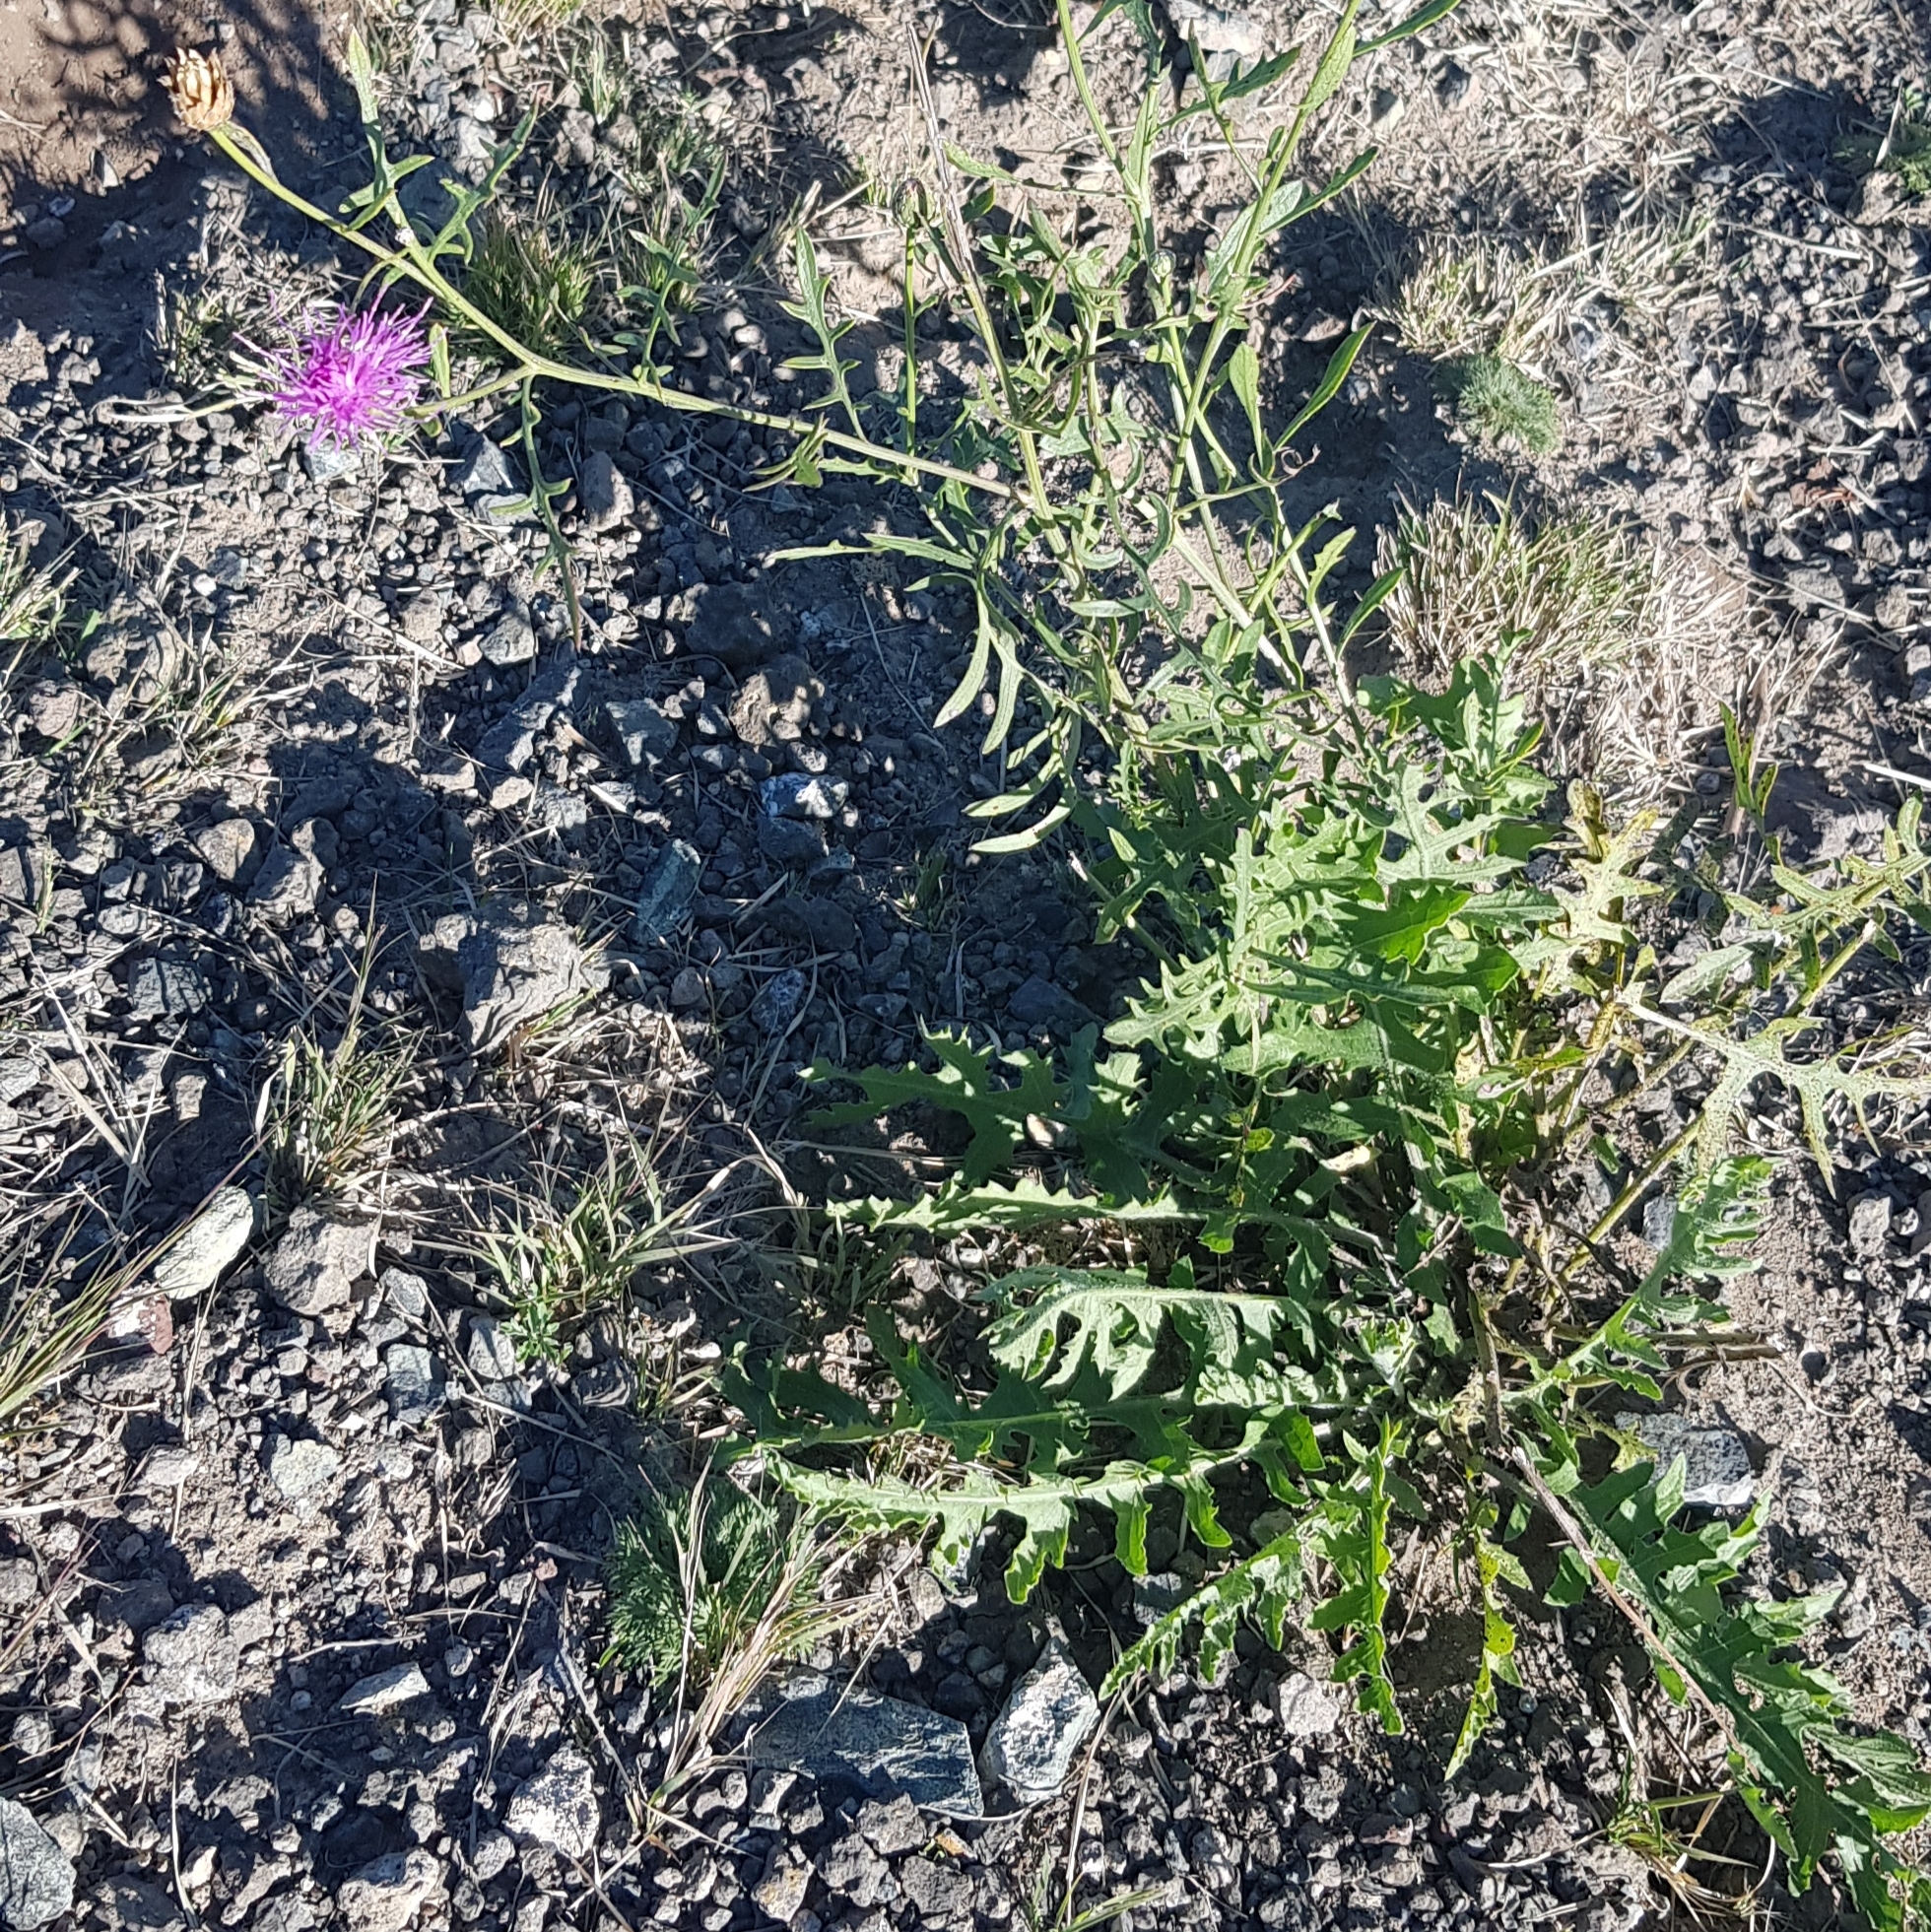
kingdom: Plantae
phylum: Tracheophyta
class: Magnoliopsida
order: Asterales
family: Asteraceae
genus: Klasea
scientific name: Klasea centauroides
